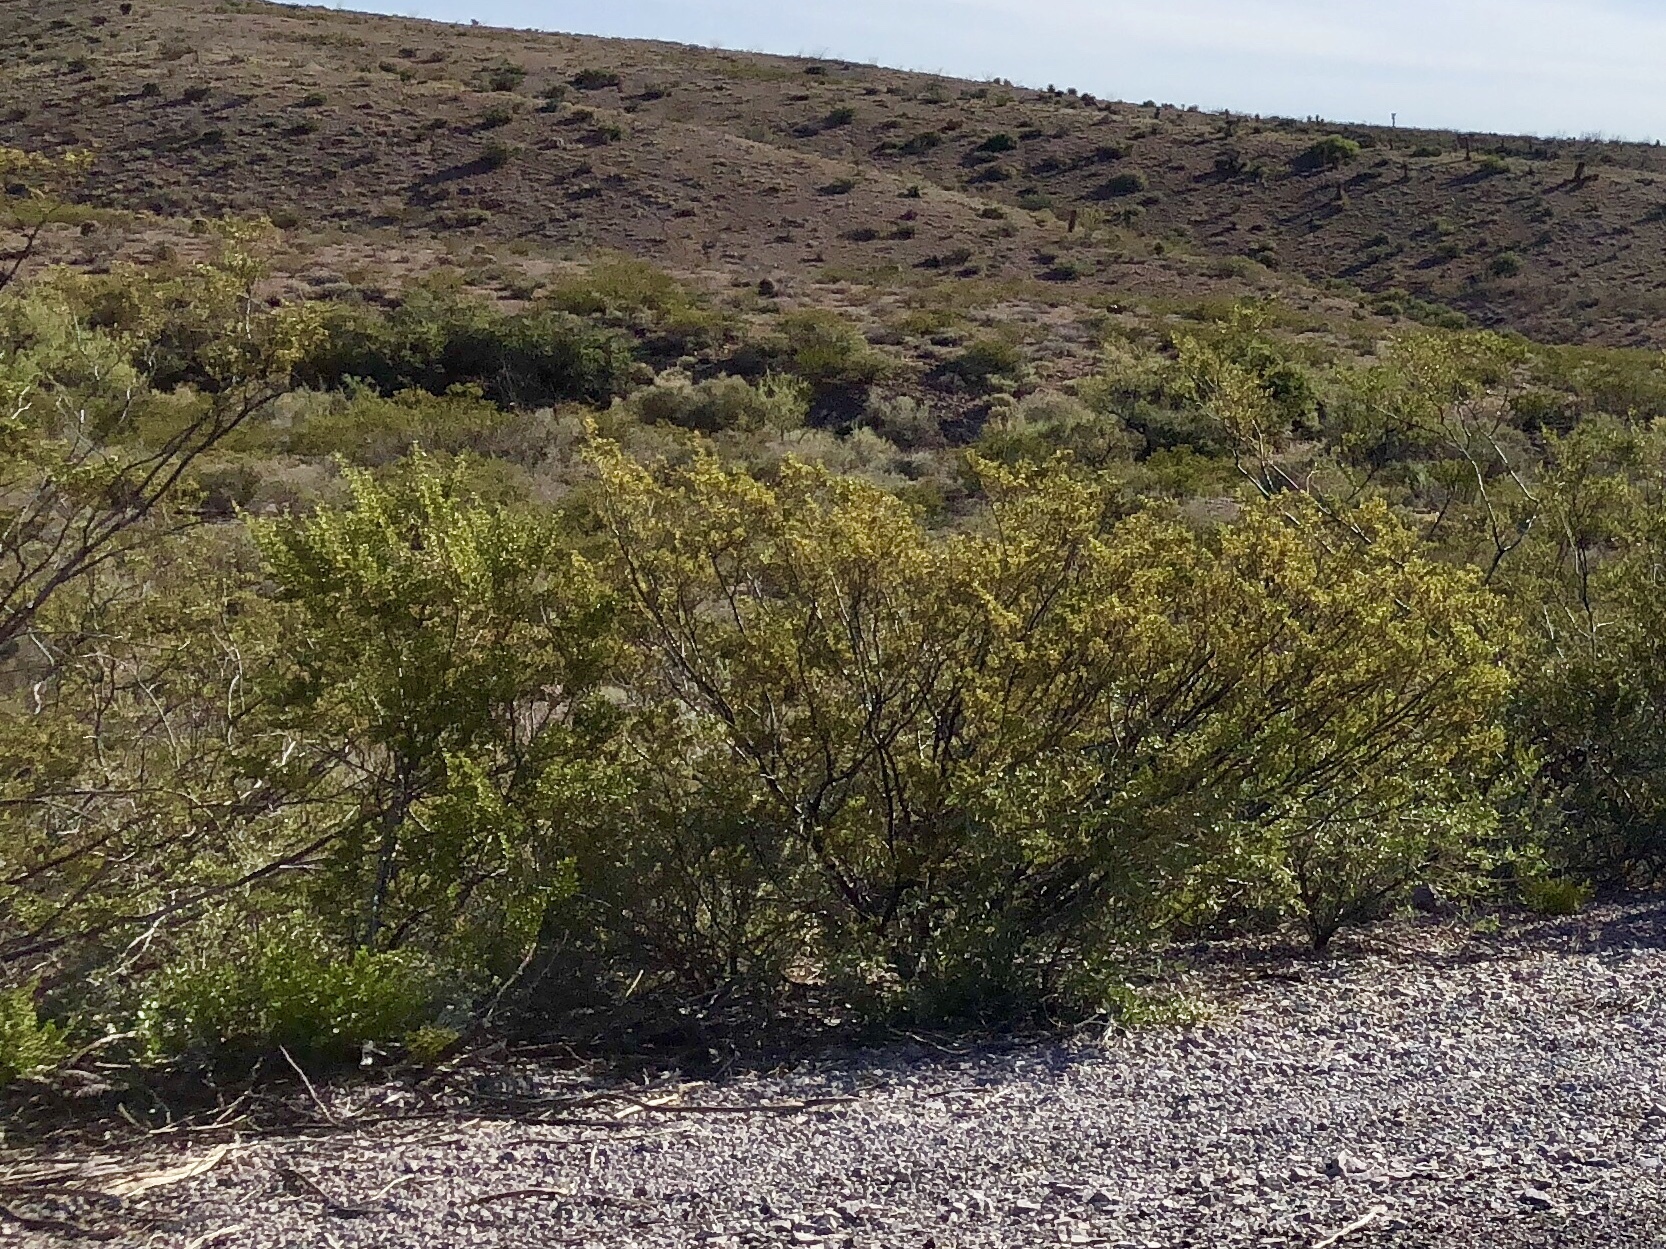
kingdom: Plantae
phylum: Tracheophyta
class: Magnoliopsida
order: Zygophyllales
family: Zygophyllaceae
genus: Larrea
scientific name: Larrea tridentata
